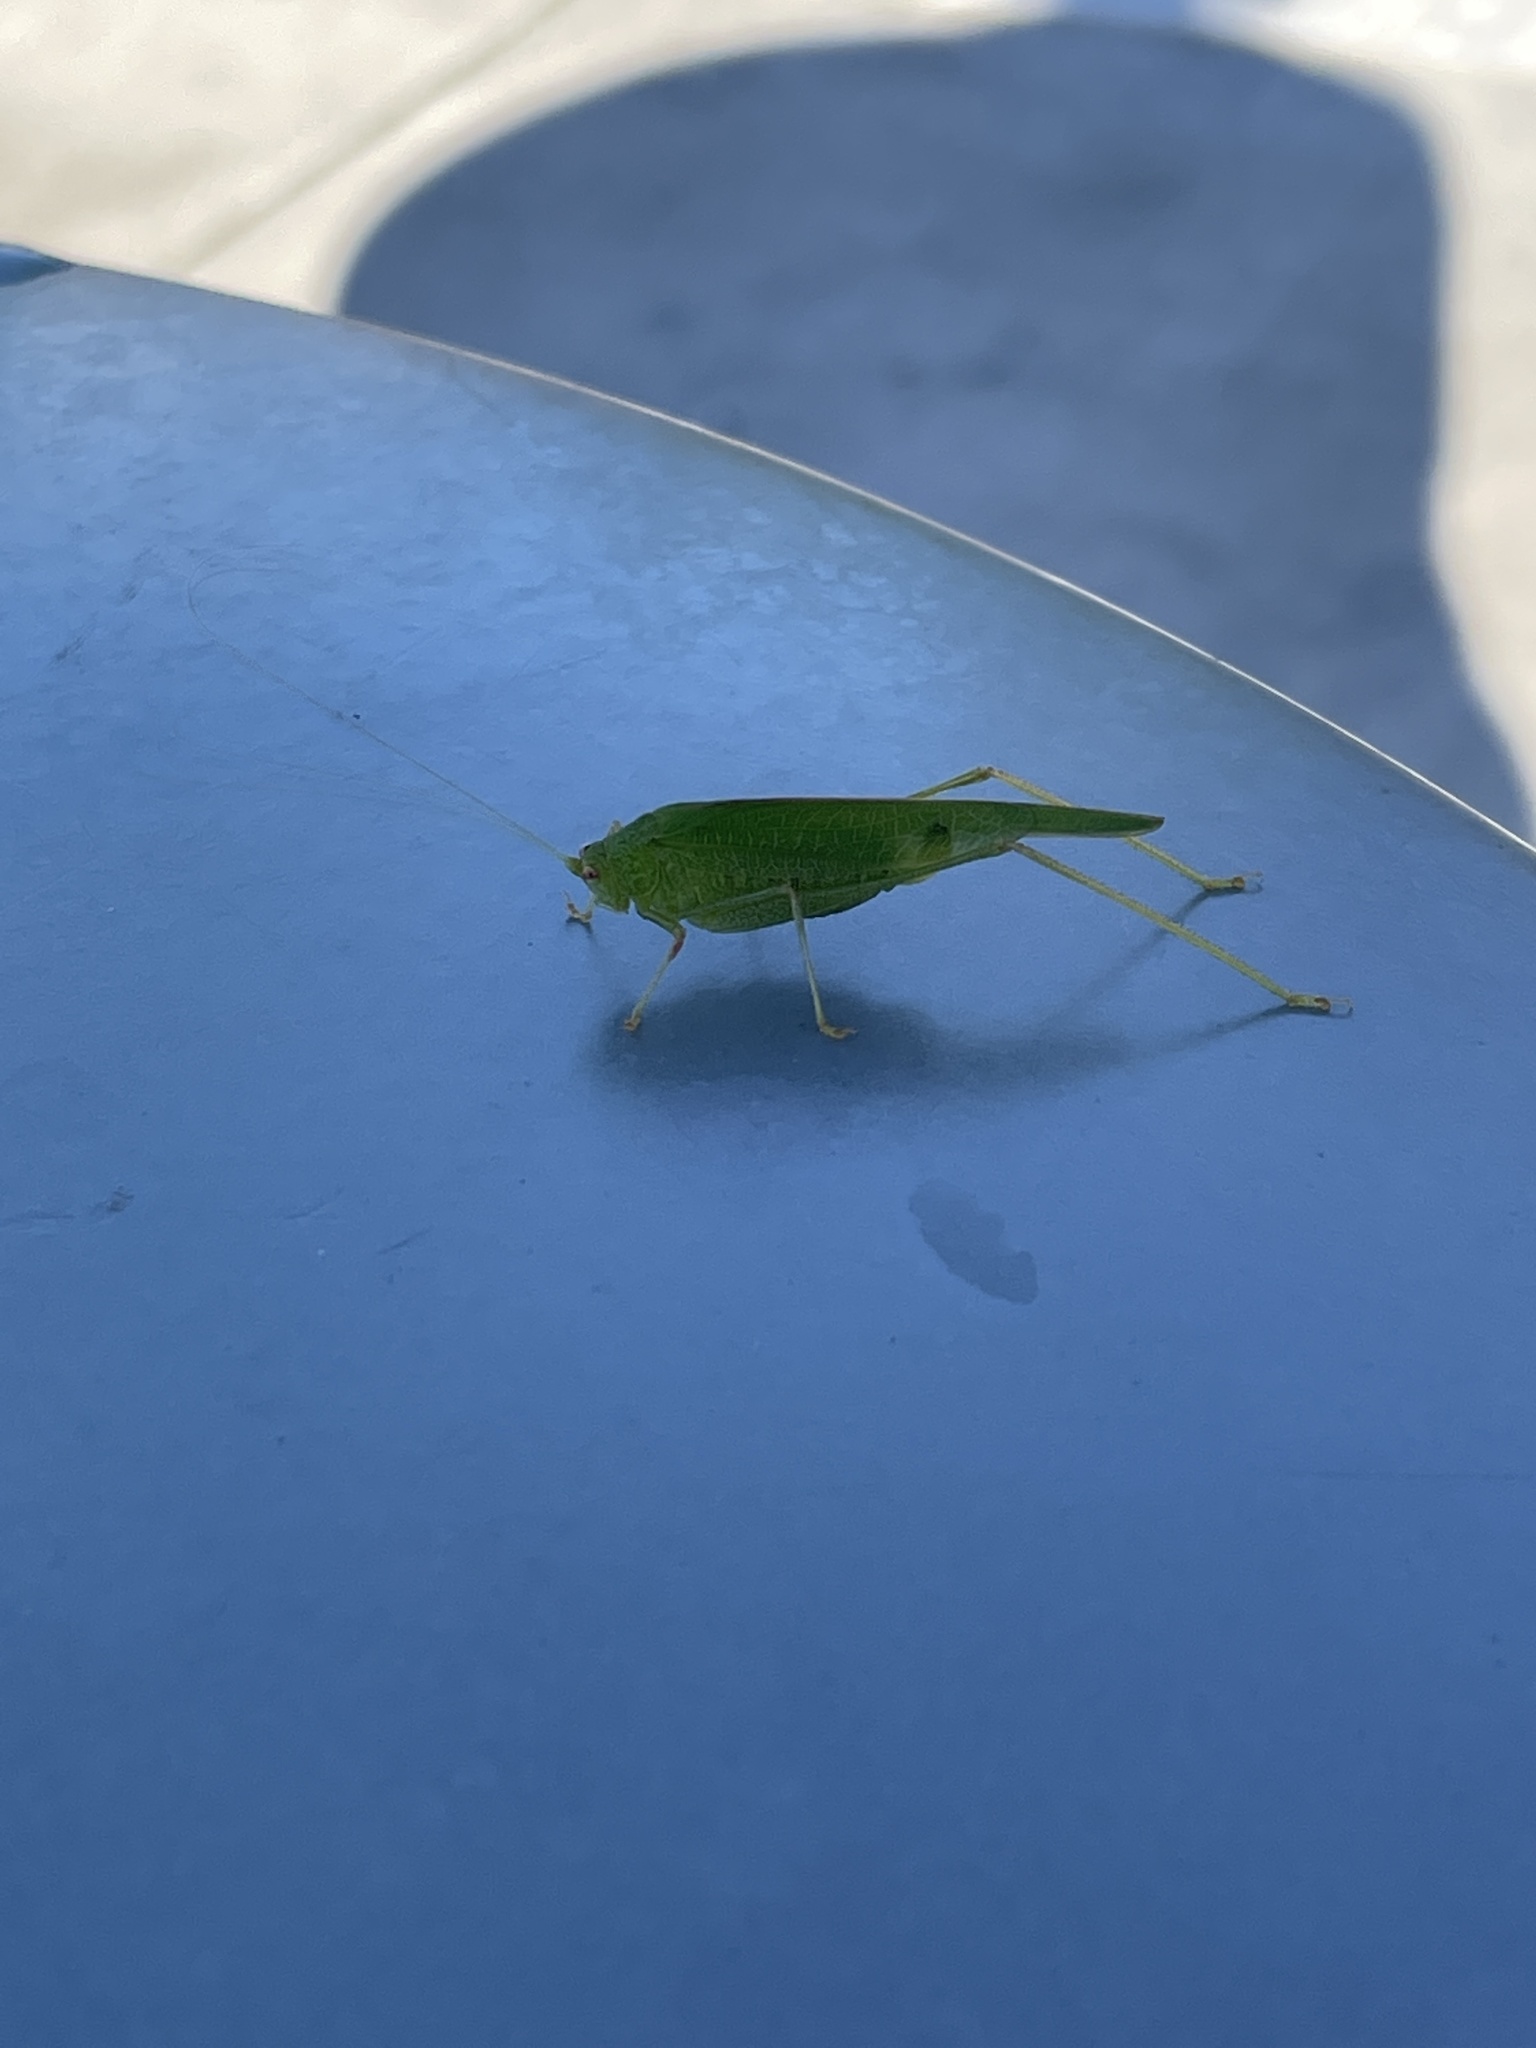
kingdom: Animalia
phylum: Arthropoda
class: Insecta
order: Orthoptera
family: Tettigoniidae
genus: Phaneroptera
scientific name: Phaneroptera nana
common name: Southern sickle bush-cricket
